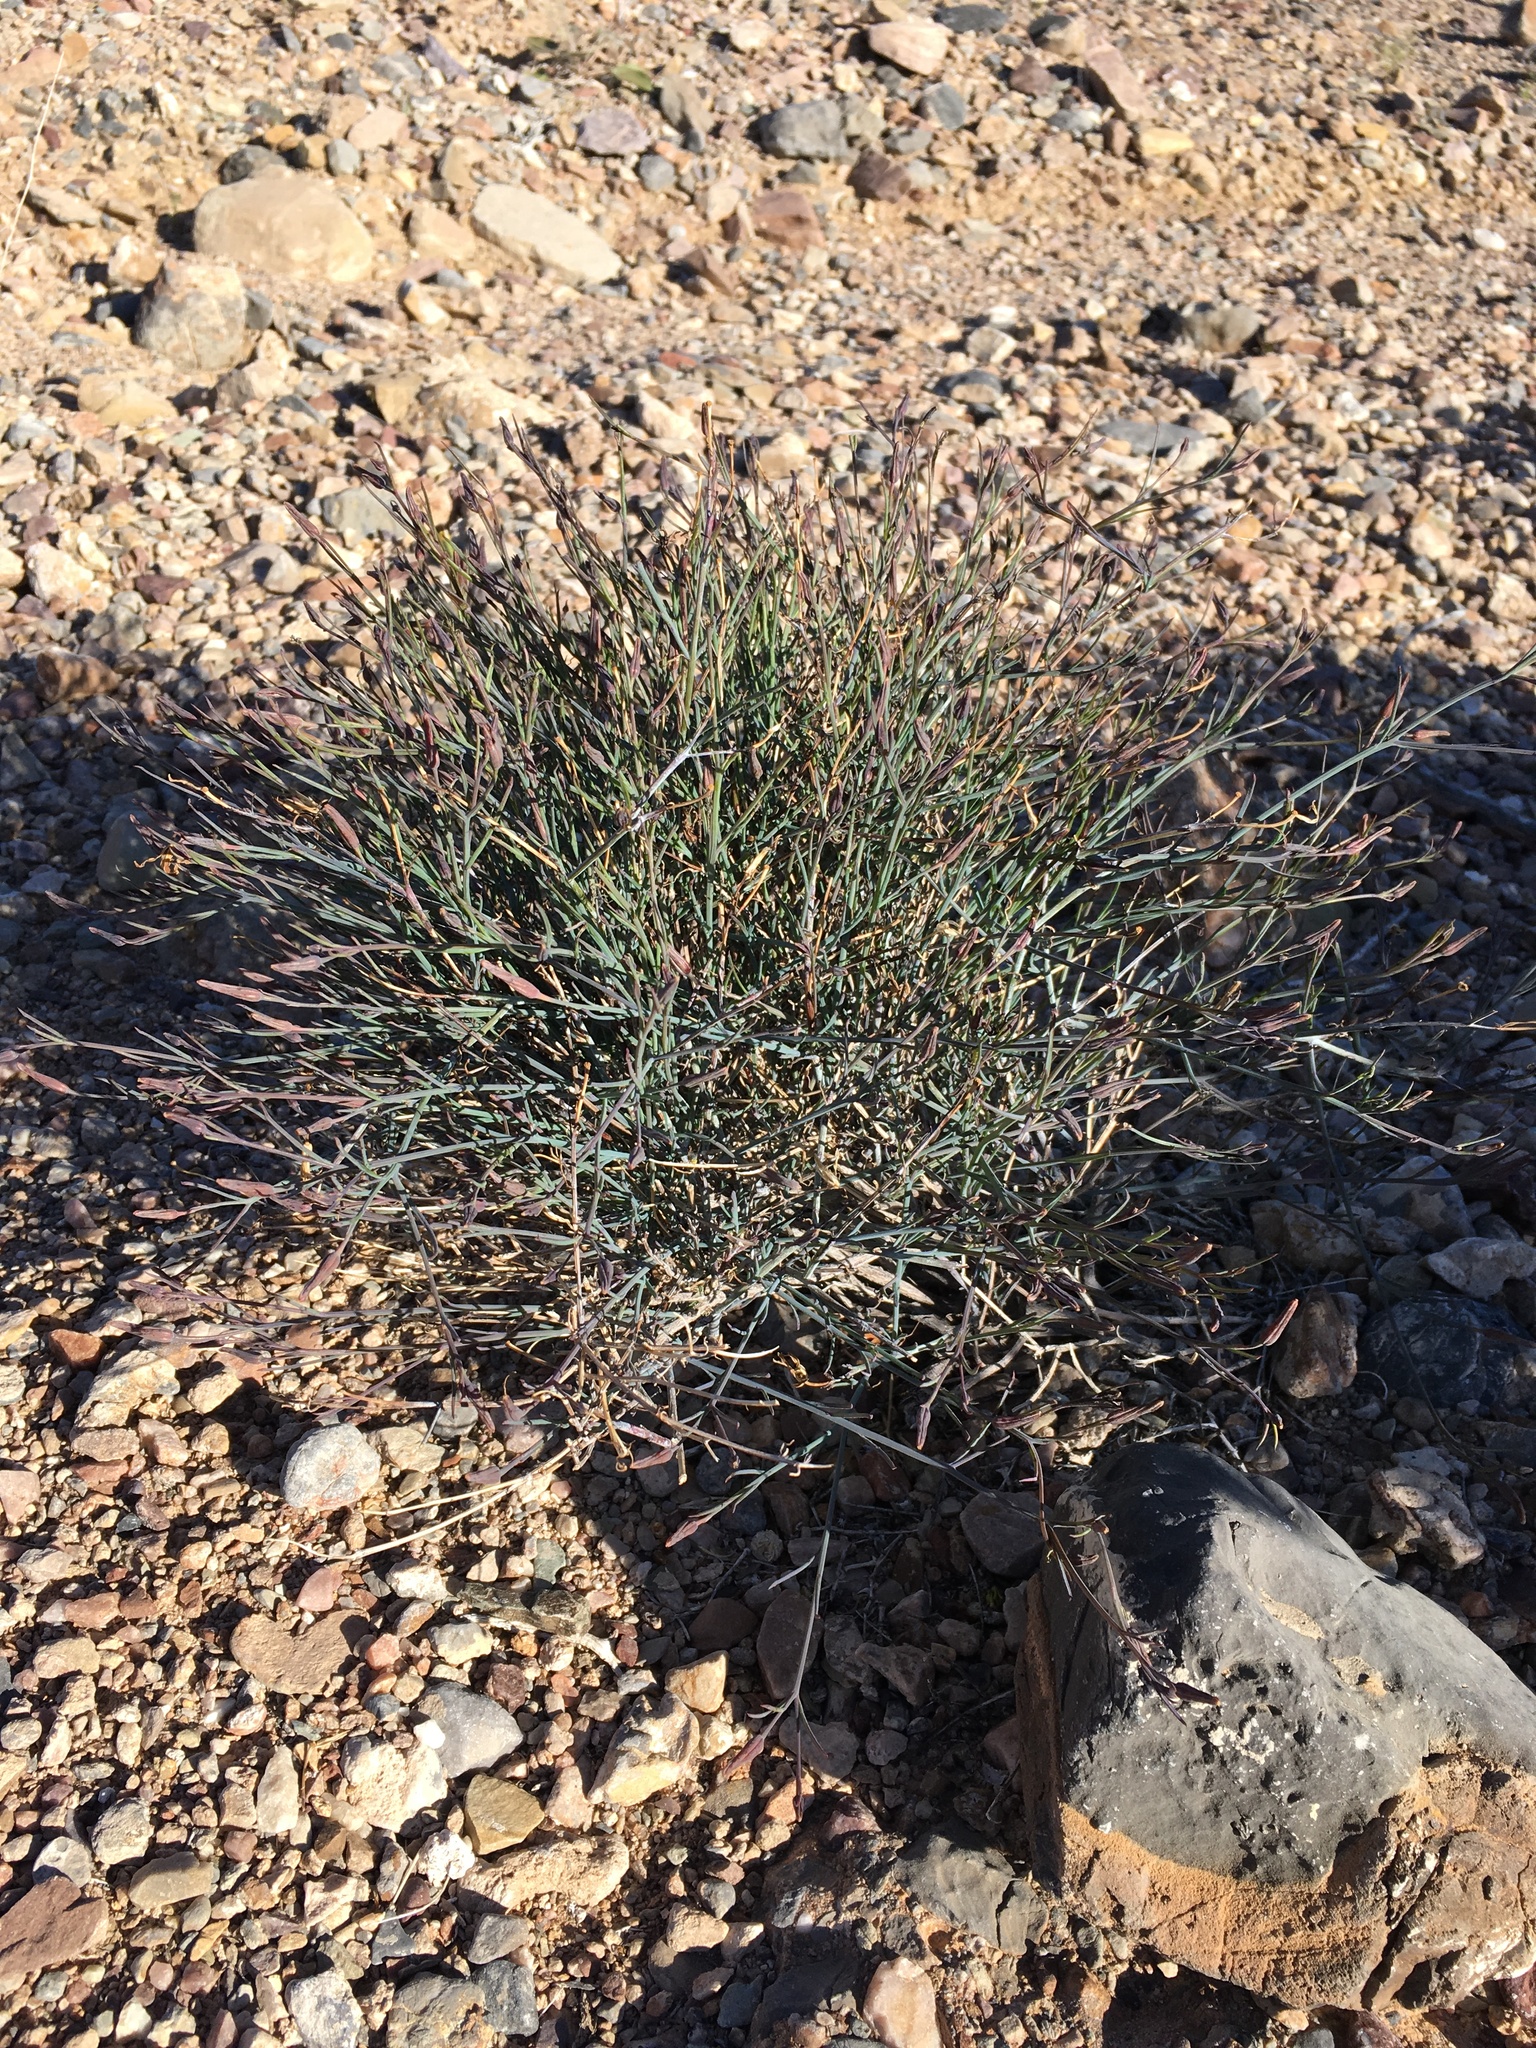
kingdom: Plantae
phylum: Tracheophyta
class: Magnoliopsida
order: Asterales
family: Asteraceae
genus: Porophyllum
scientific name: Porophyllum gracile
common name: Odora
